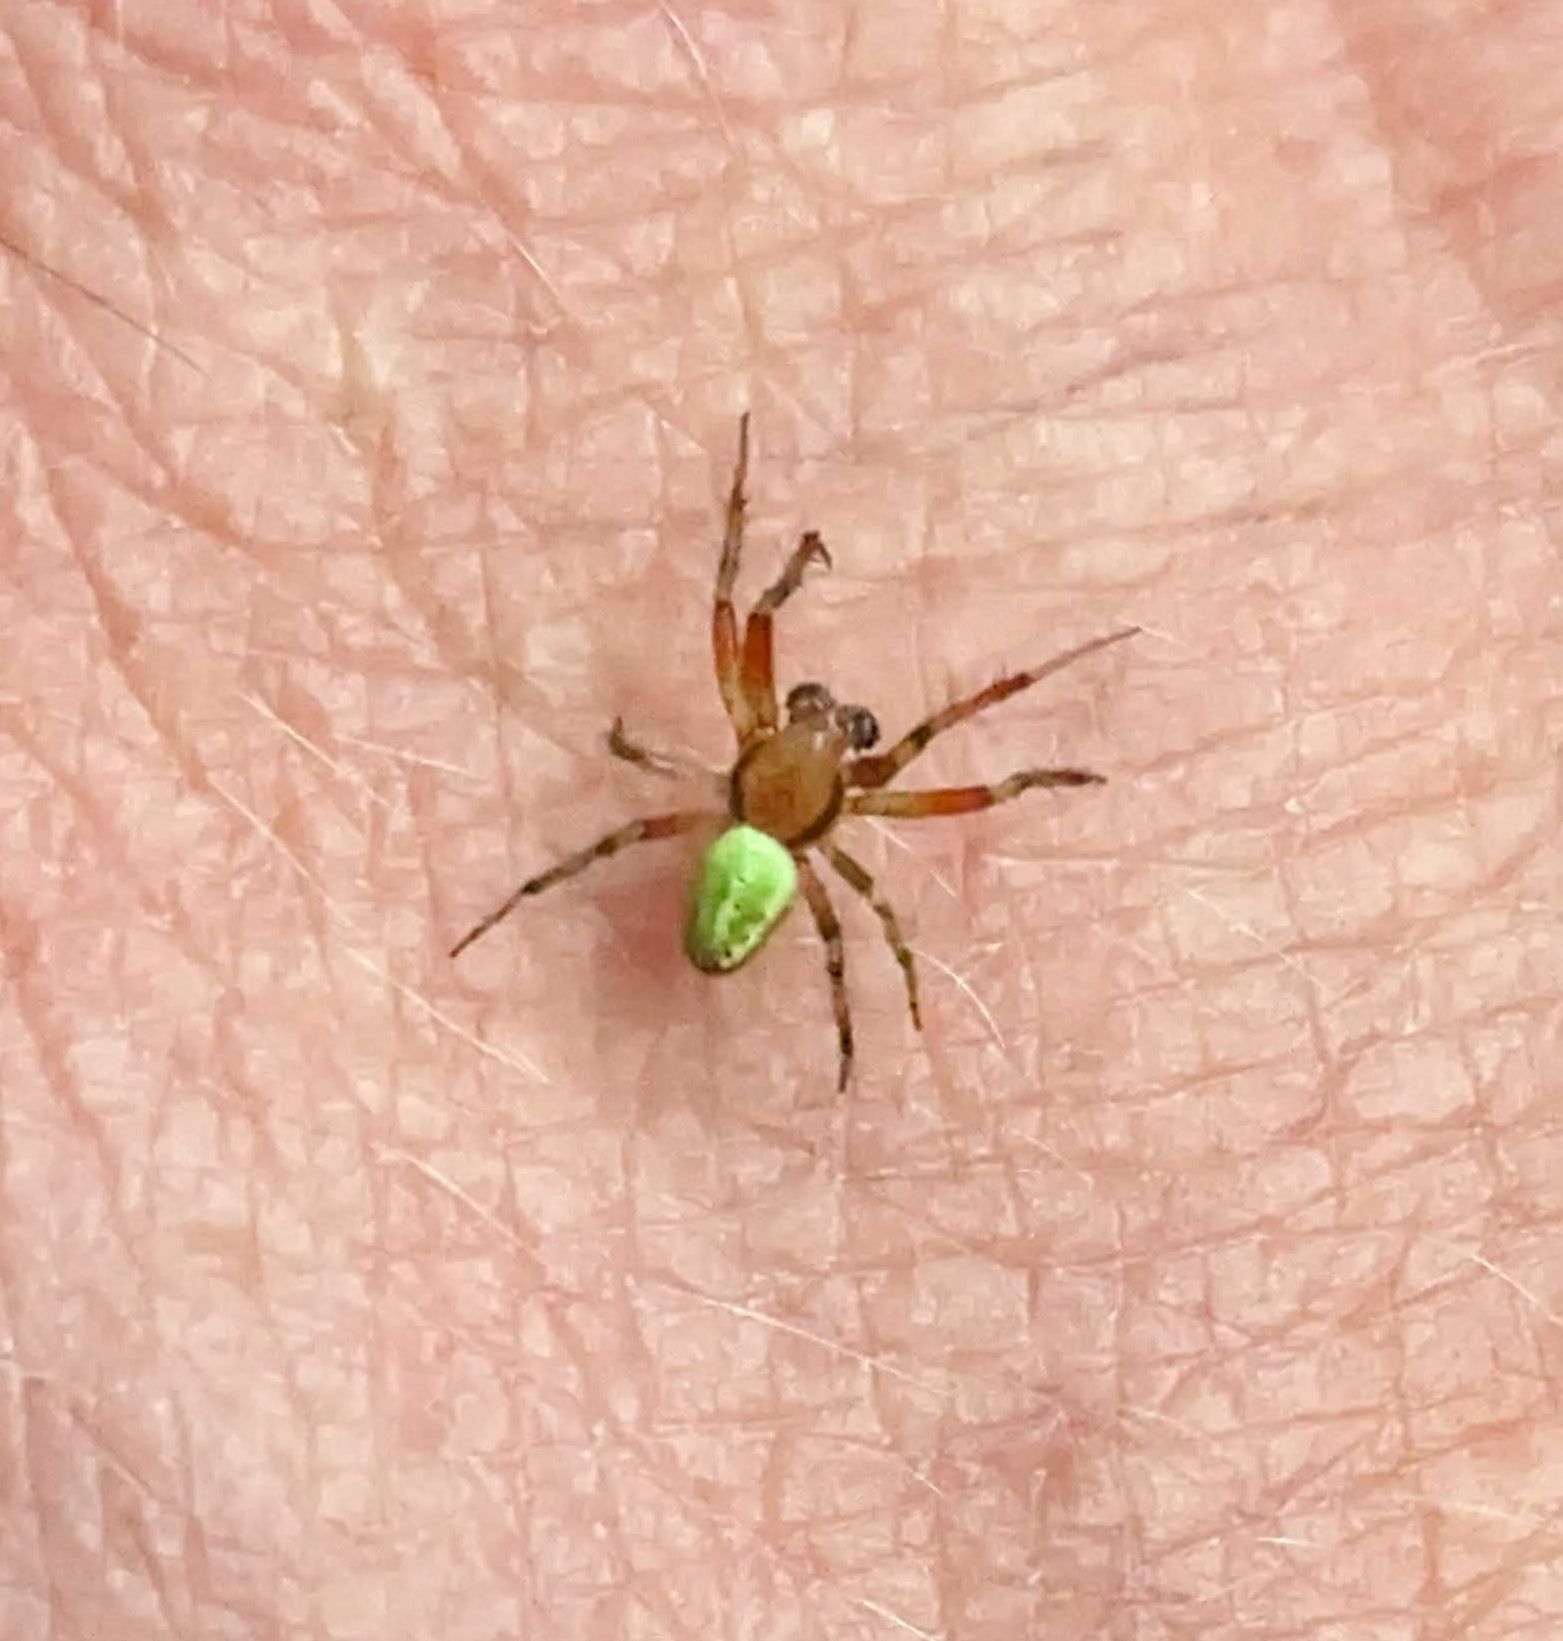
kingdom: Animalia
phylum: Arthropoda
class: Arachnida
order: Araneae
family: Araneidae
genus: Araniella
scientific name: Araniella
